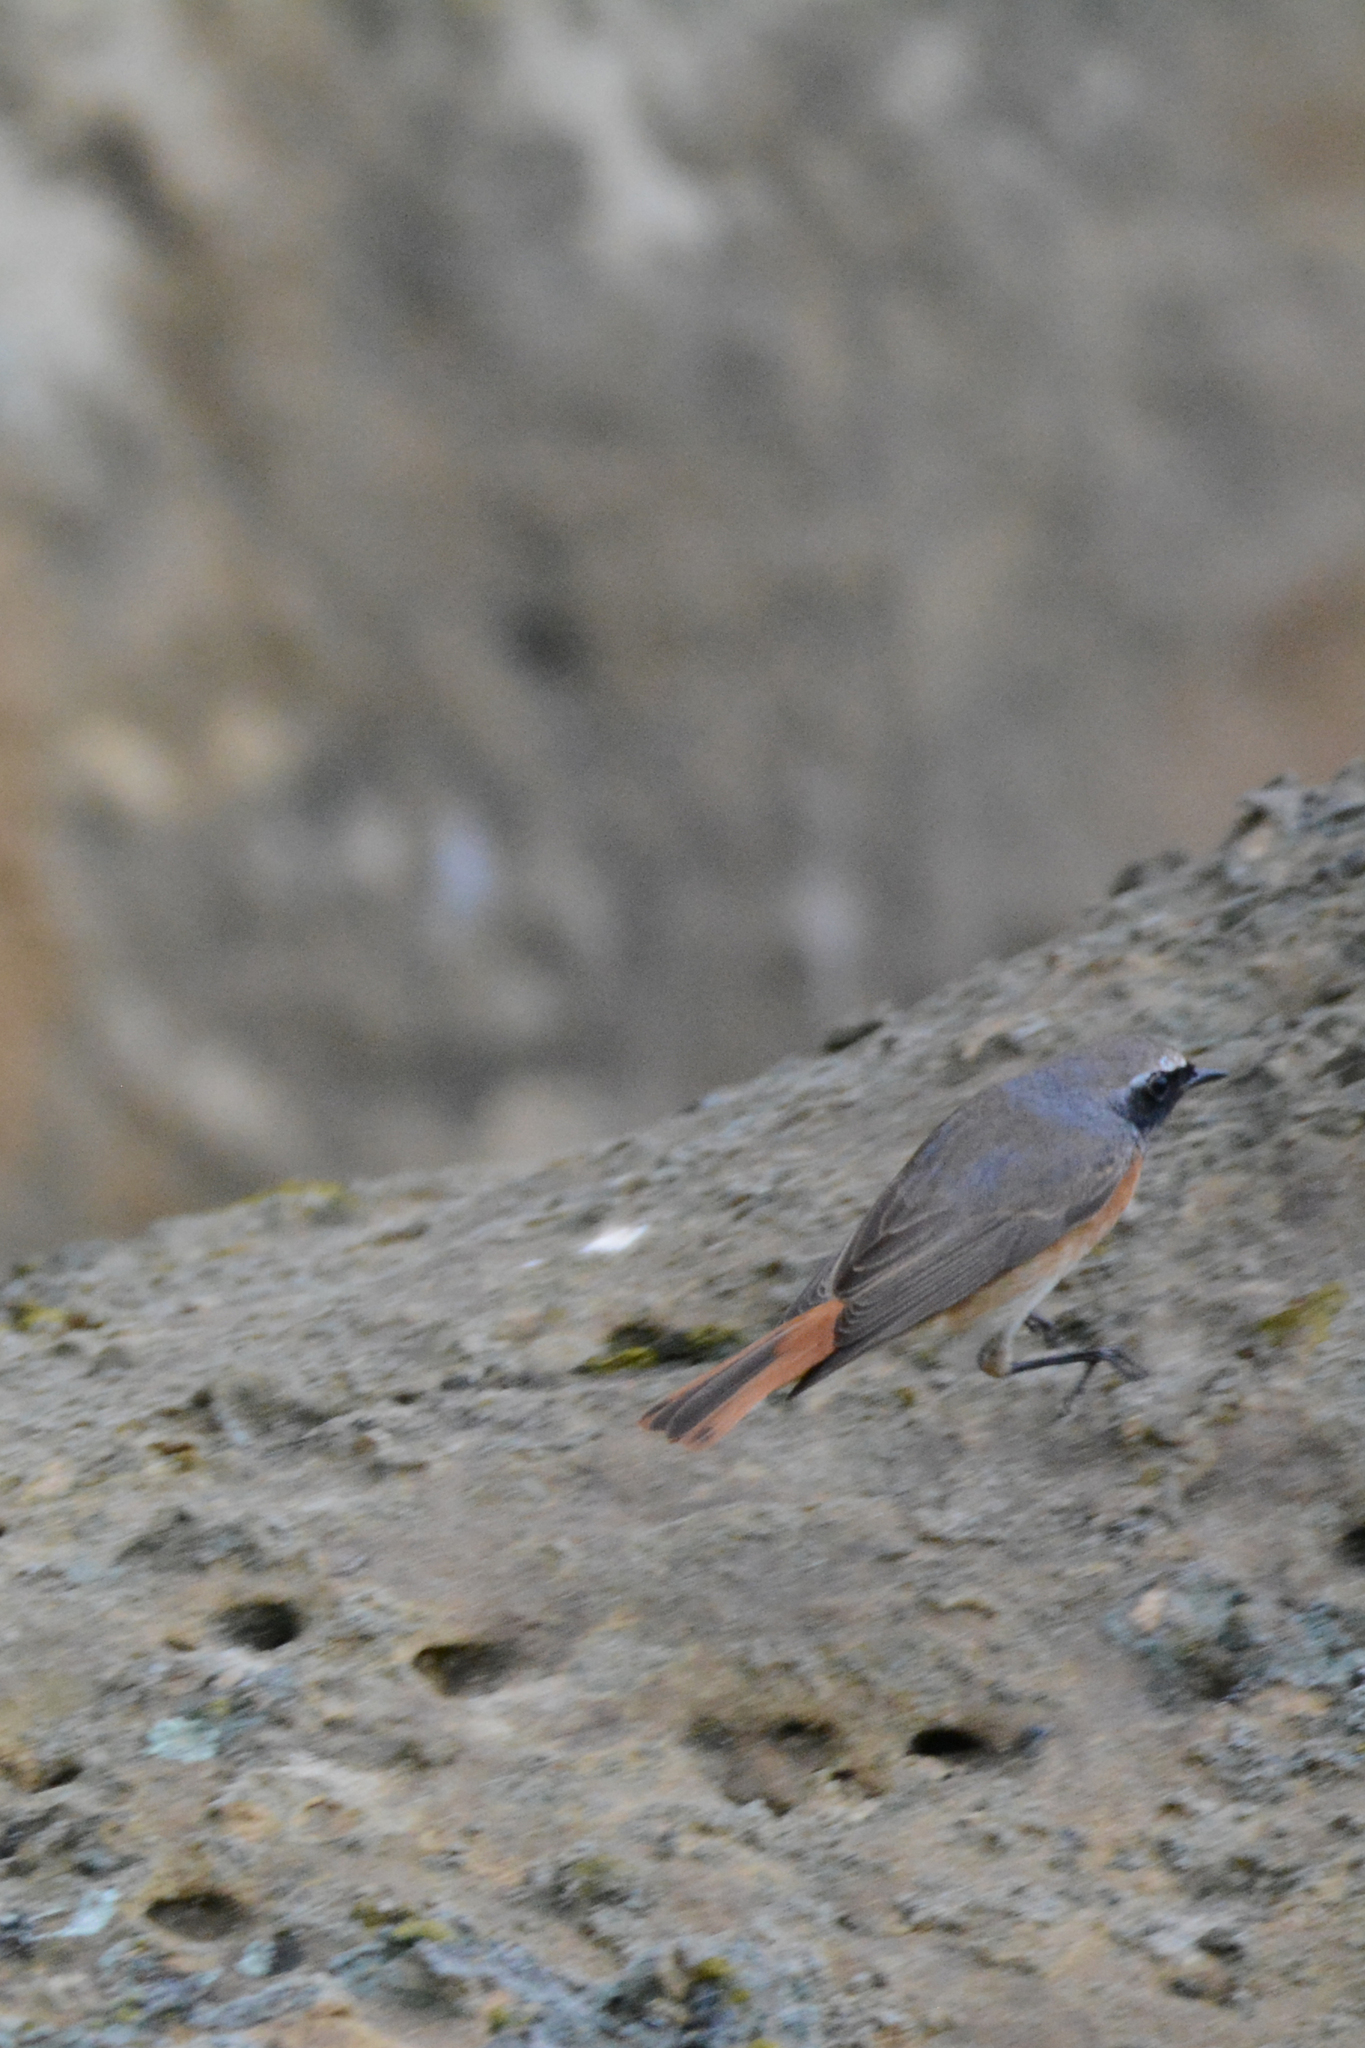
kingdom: Animalia
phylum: Chordata
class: Aves
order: Passeriformes
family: Muscicapidae
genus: Phoenicurus
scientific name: Phoenicurus phoenicurus
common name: Common redstart
